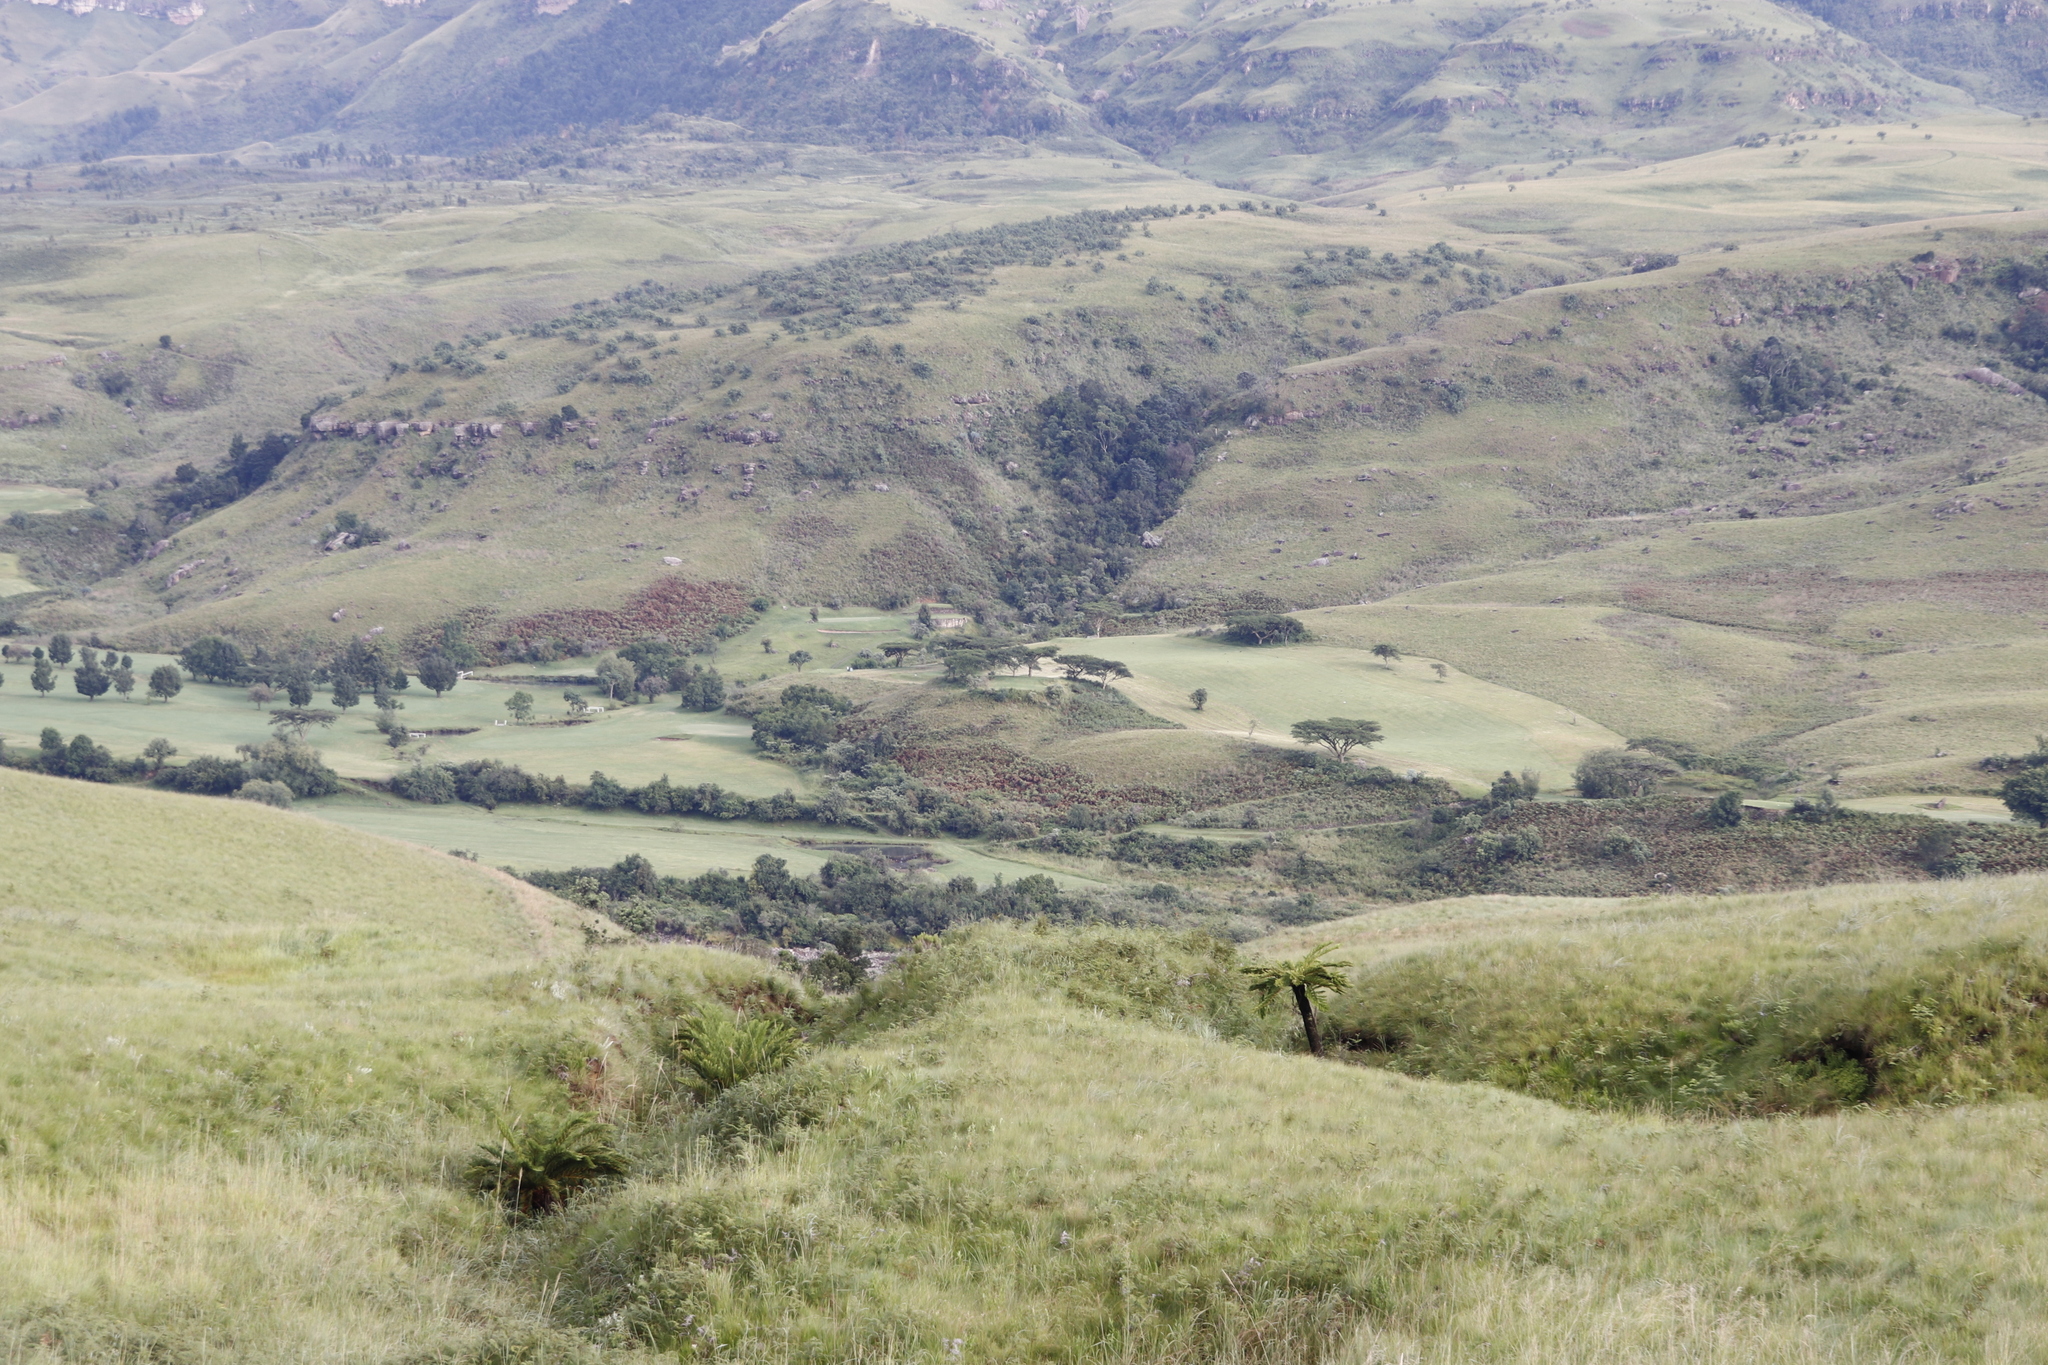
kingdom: Plantae
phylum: Tracheophyta
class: Magnoliopsida
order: Fabales
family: Fabaceae
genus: Vachellia
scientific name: Vachellia sieberiana
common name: Flat-topped thorn
